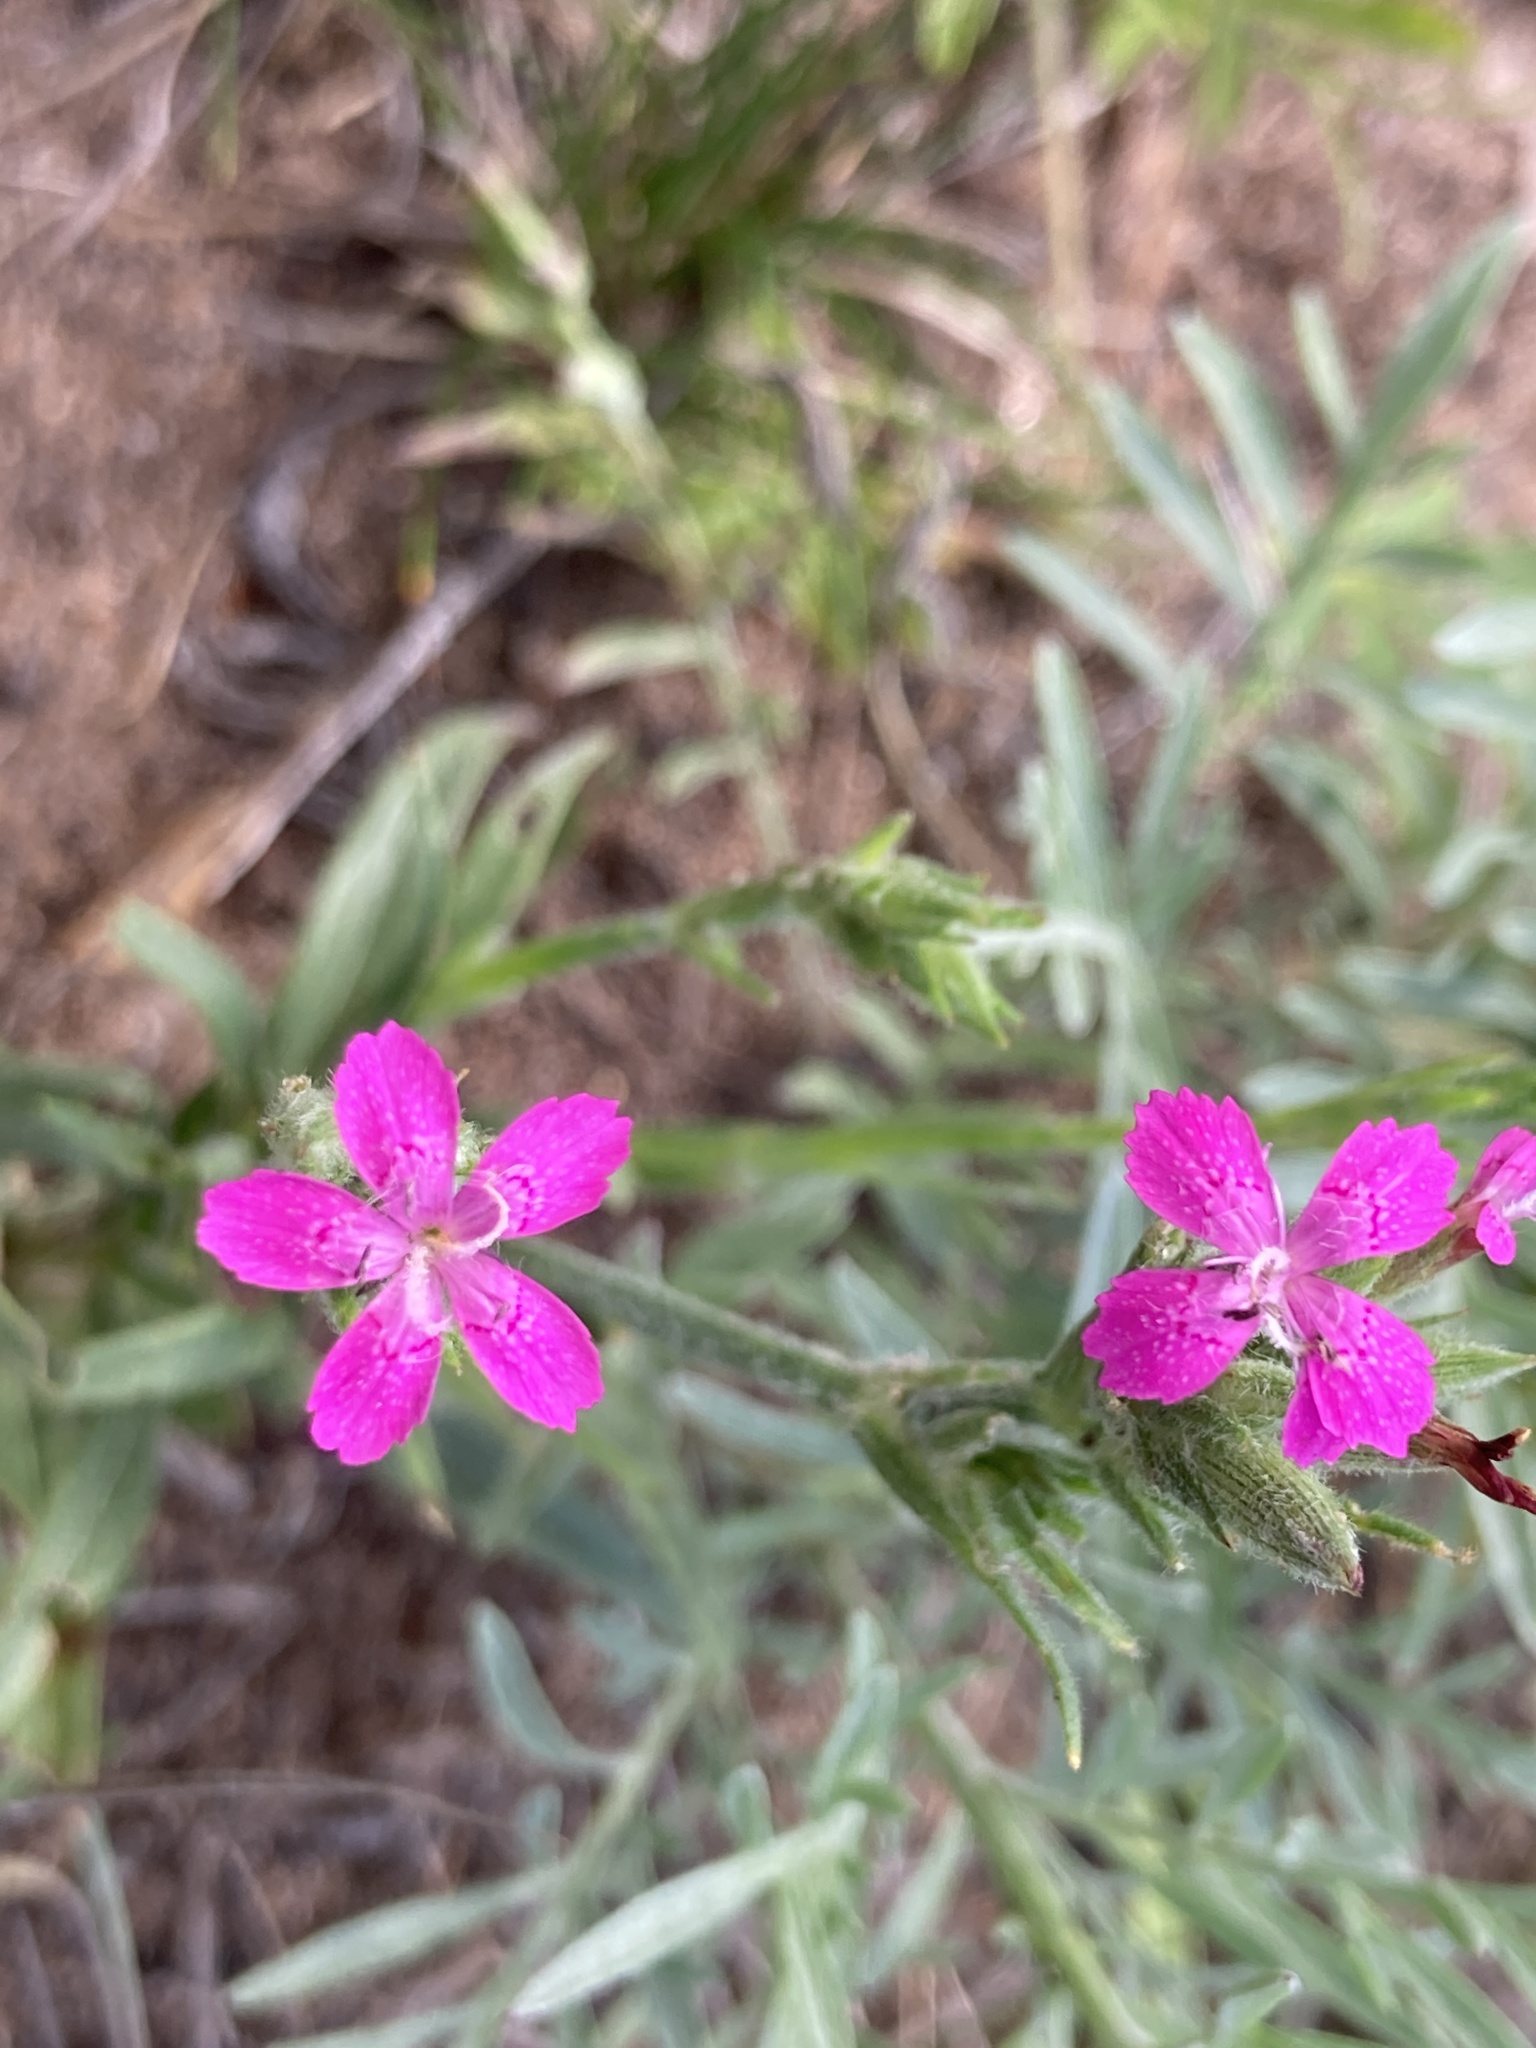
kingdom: Plantae
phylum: Tracheophyta
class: Magnoliopsida
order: Caryophyllales
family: Caryophyllaceae
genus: Dianthus
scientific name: Dianthus armeria
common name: Deptford pink
